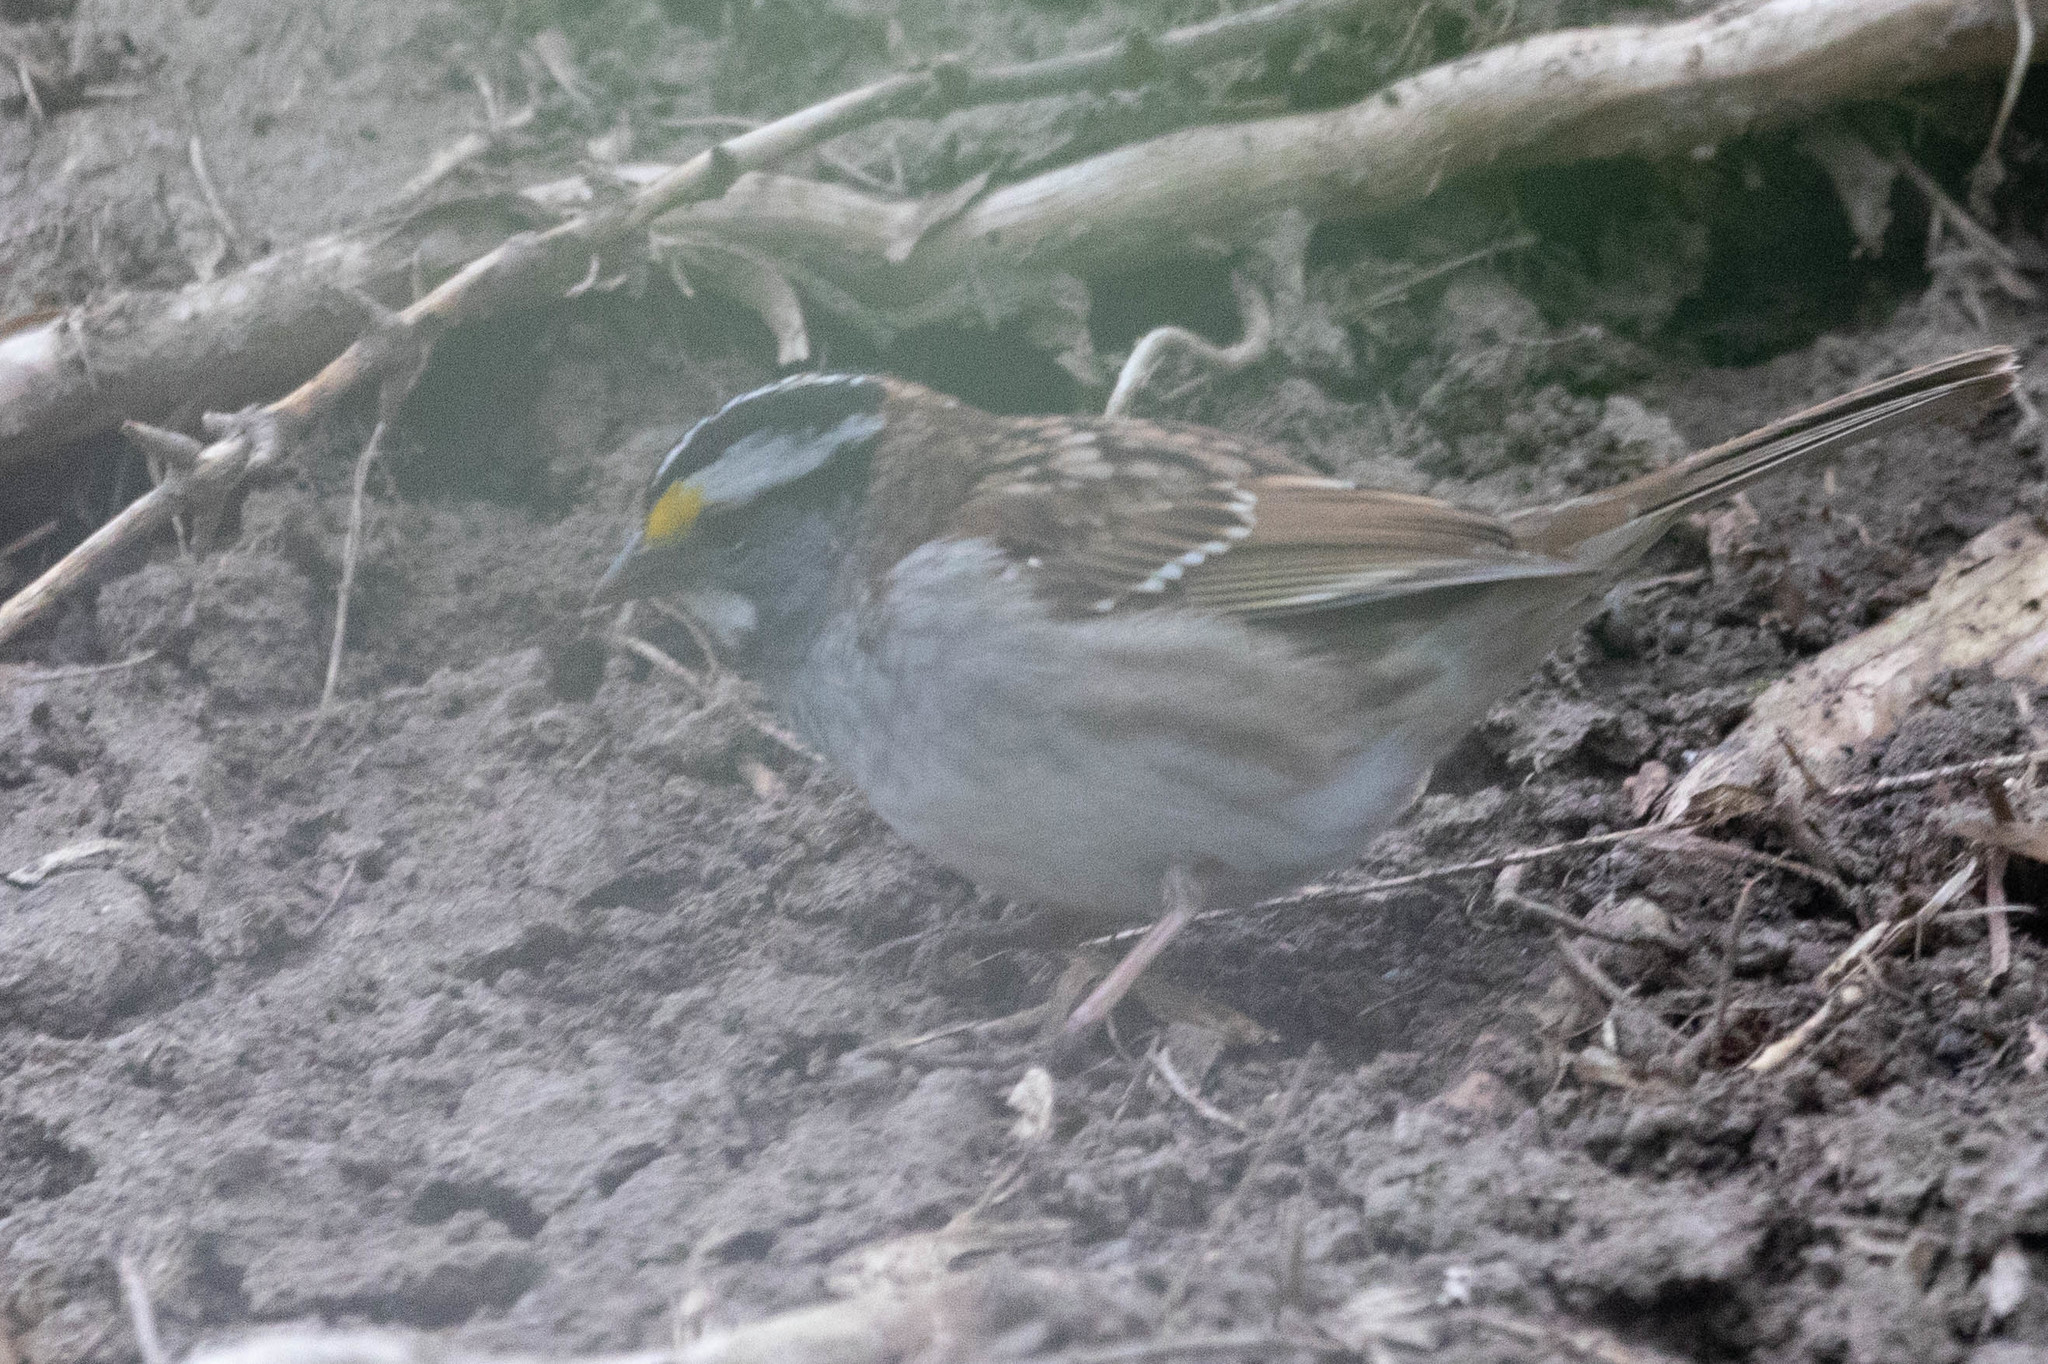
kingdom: Animalia
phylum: Chordata
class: Aves
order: Passeriformes
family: Passerellidae
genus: Zonotrichia
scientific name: Zonotrichia albicollis
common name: White-throated sparrow
